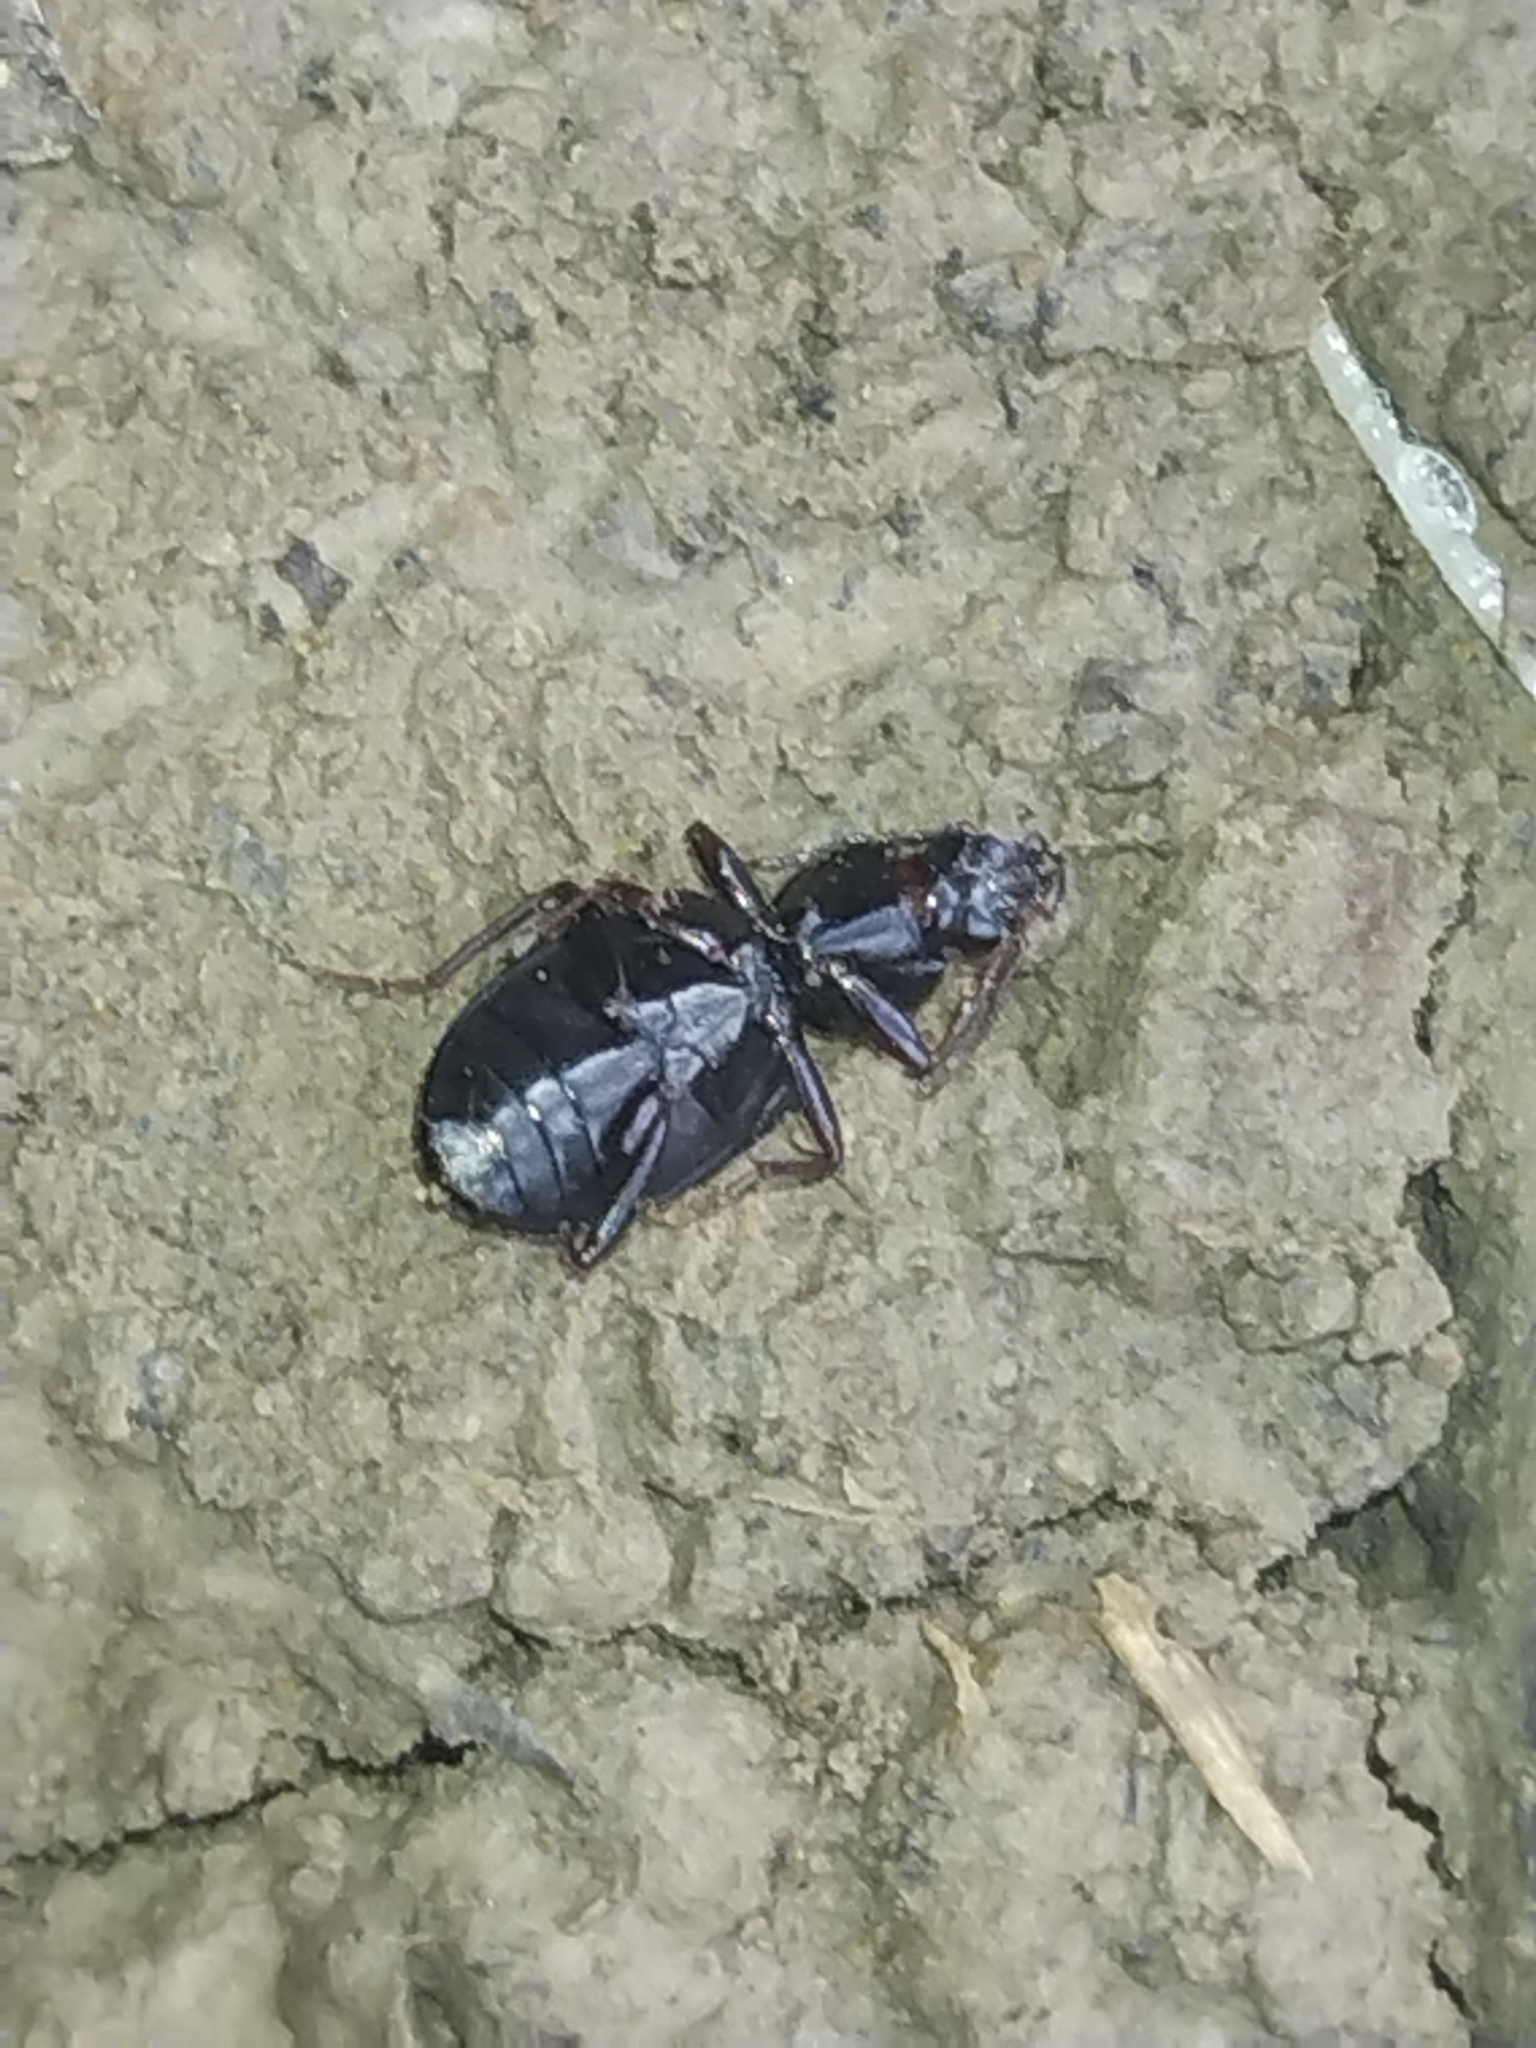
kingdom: Animalia
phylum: Arthropoda
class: Insecta
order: Coleoptera
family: Carabidae
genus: Agonum
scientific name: Agonum punctiforme
